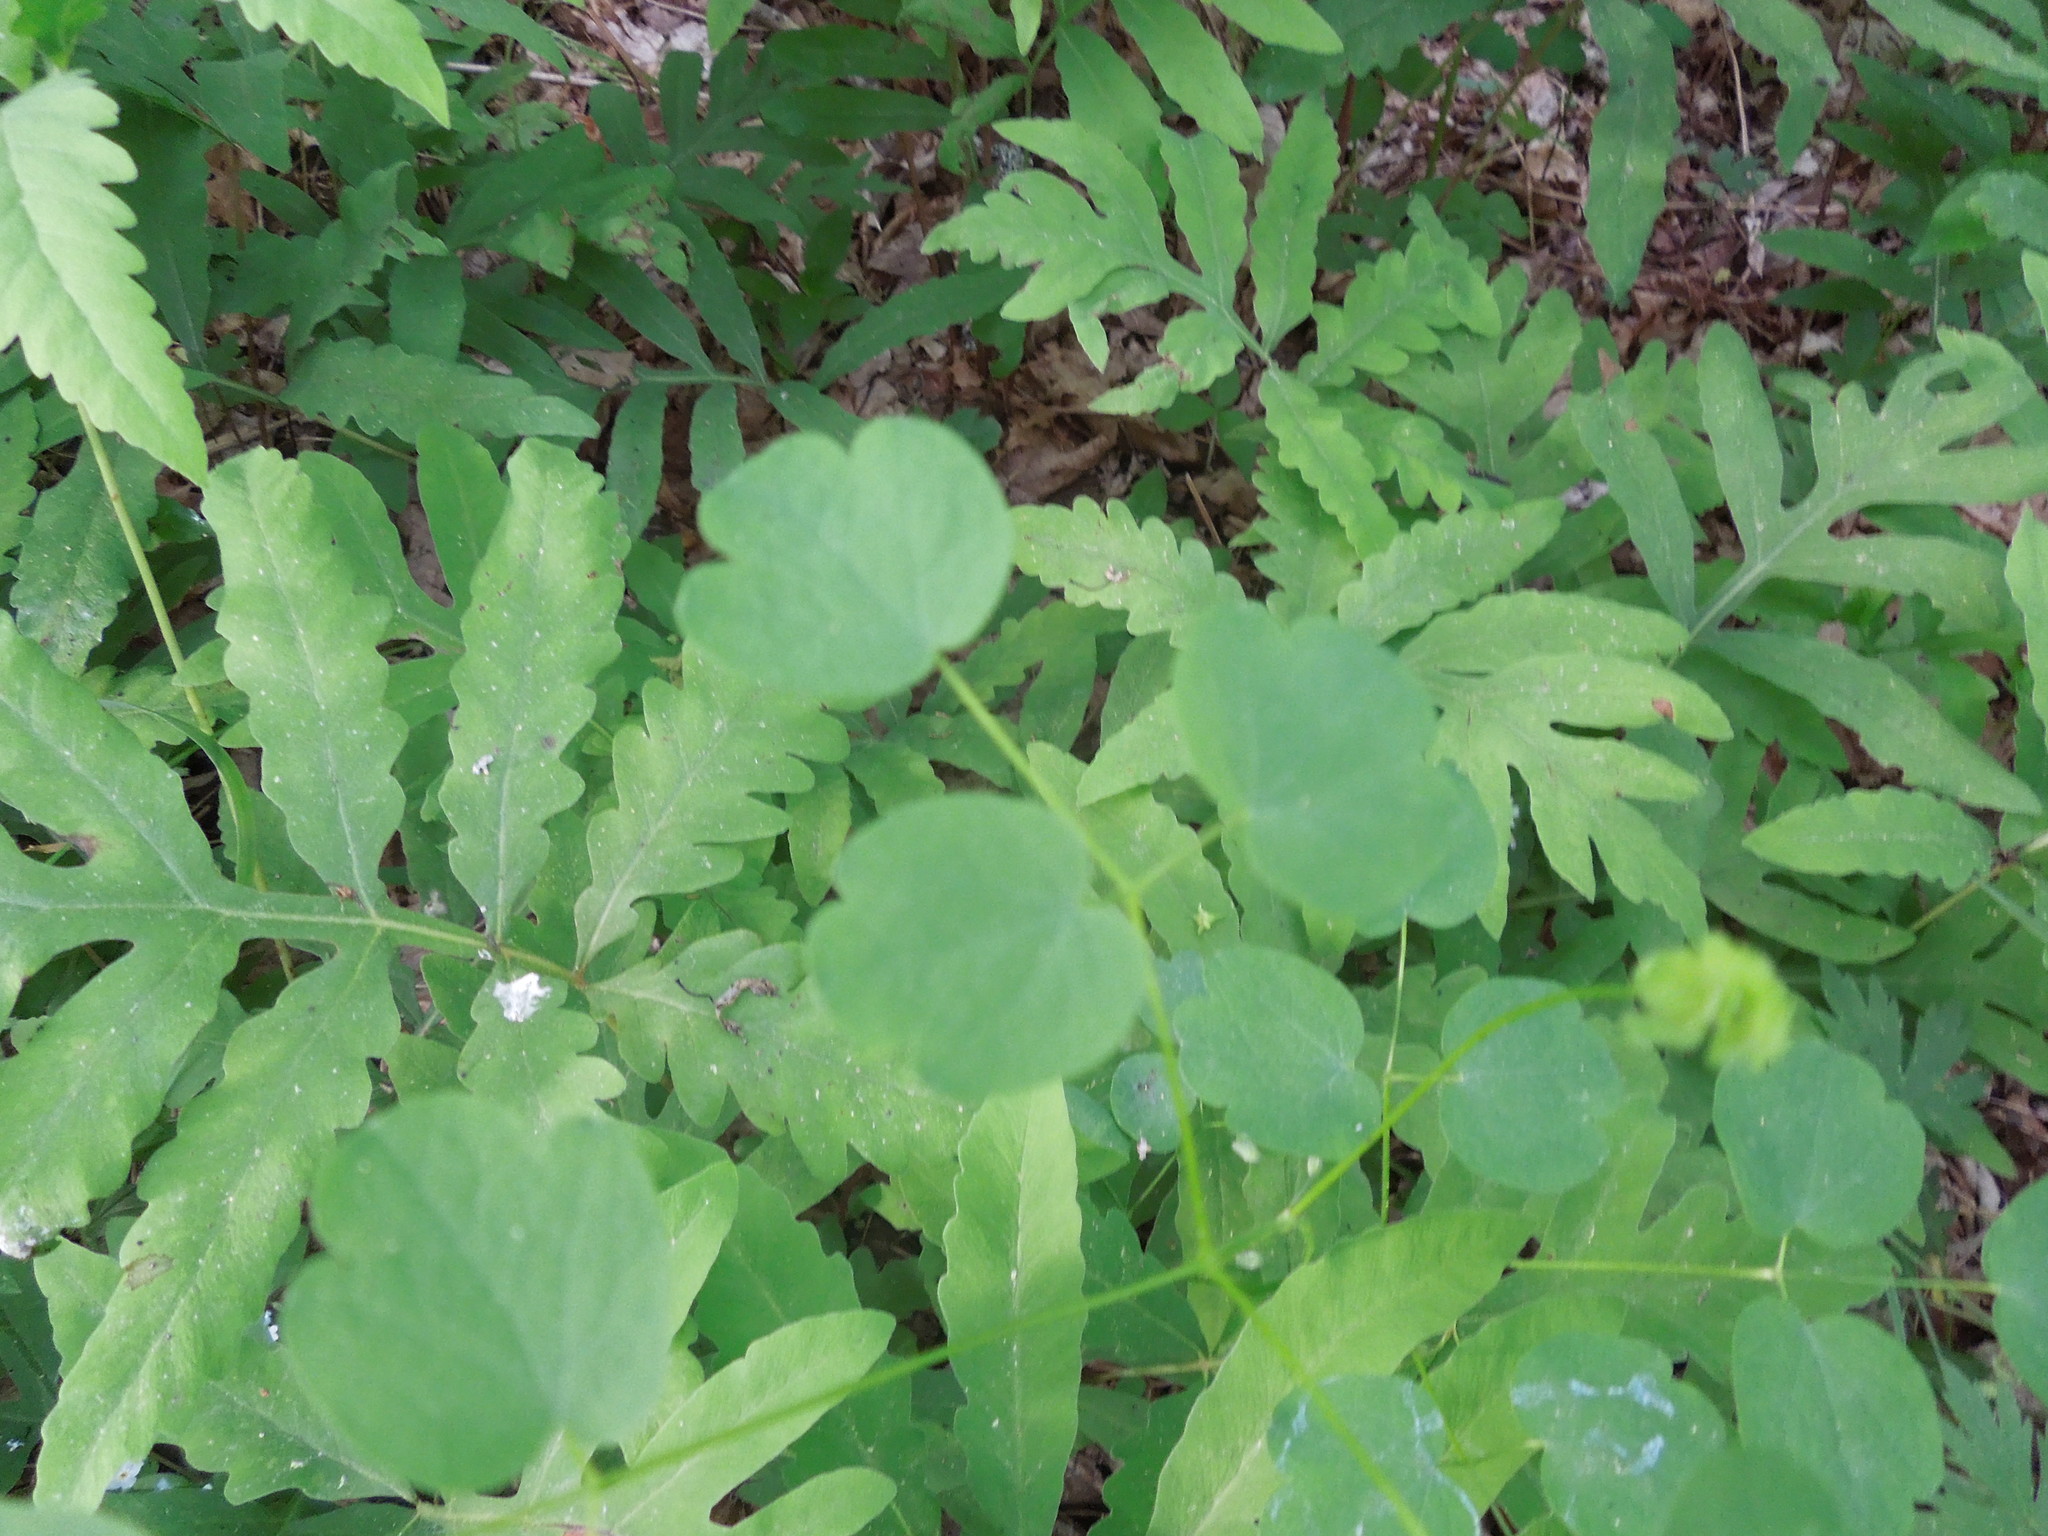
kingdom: Plantae
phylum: Tracheophyta
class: Magnoliopsida
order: Ranunculales
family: Ranunculaceae
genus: Thalictrum
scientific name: Thalictrum pubescens
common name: King-of-the-meadow
